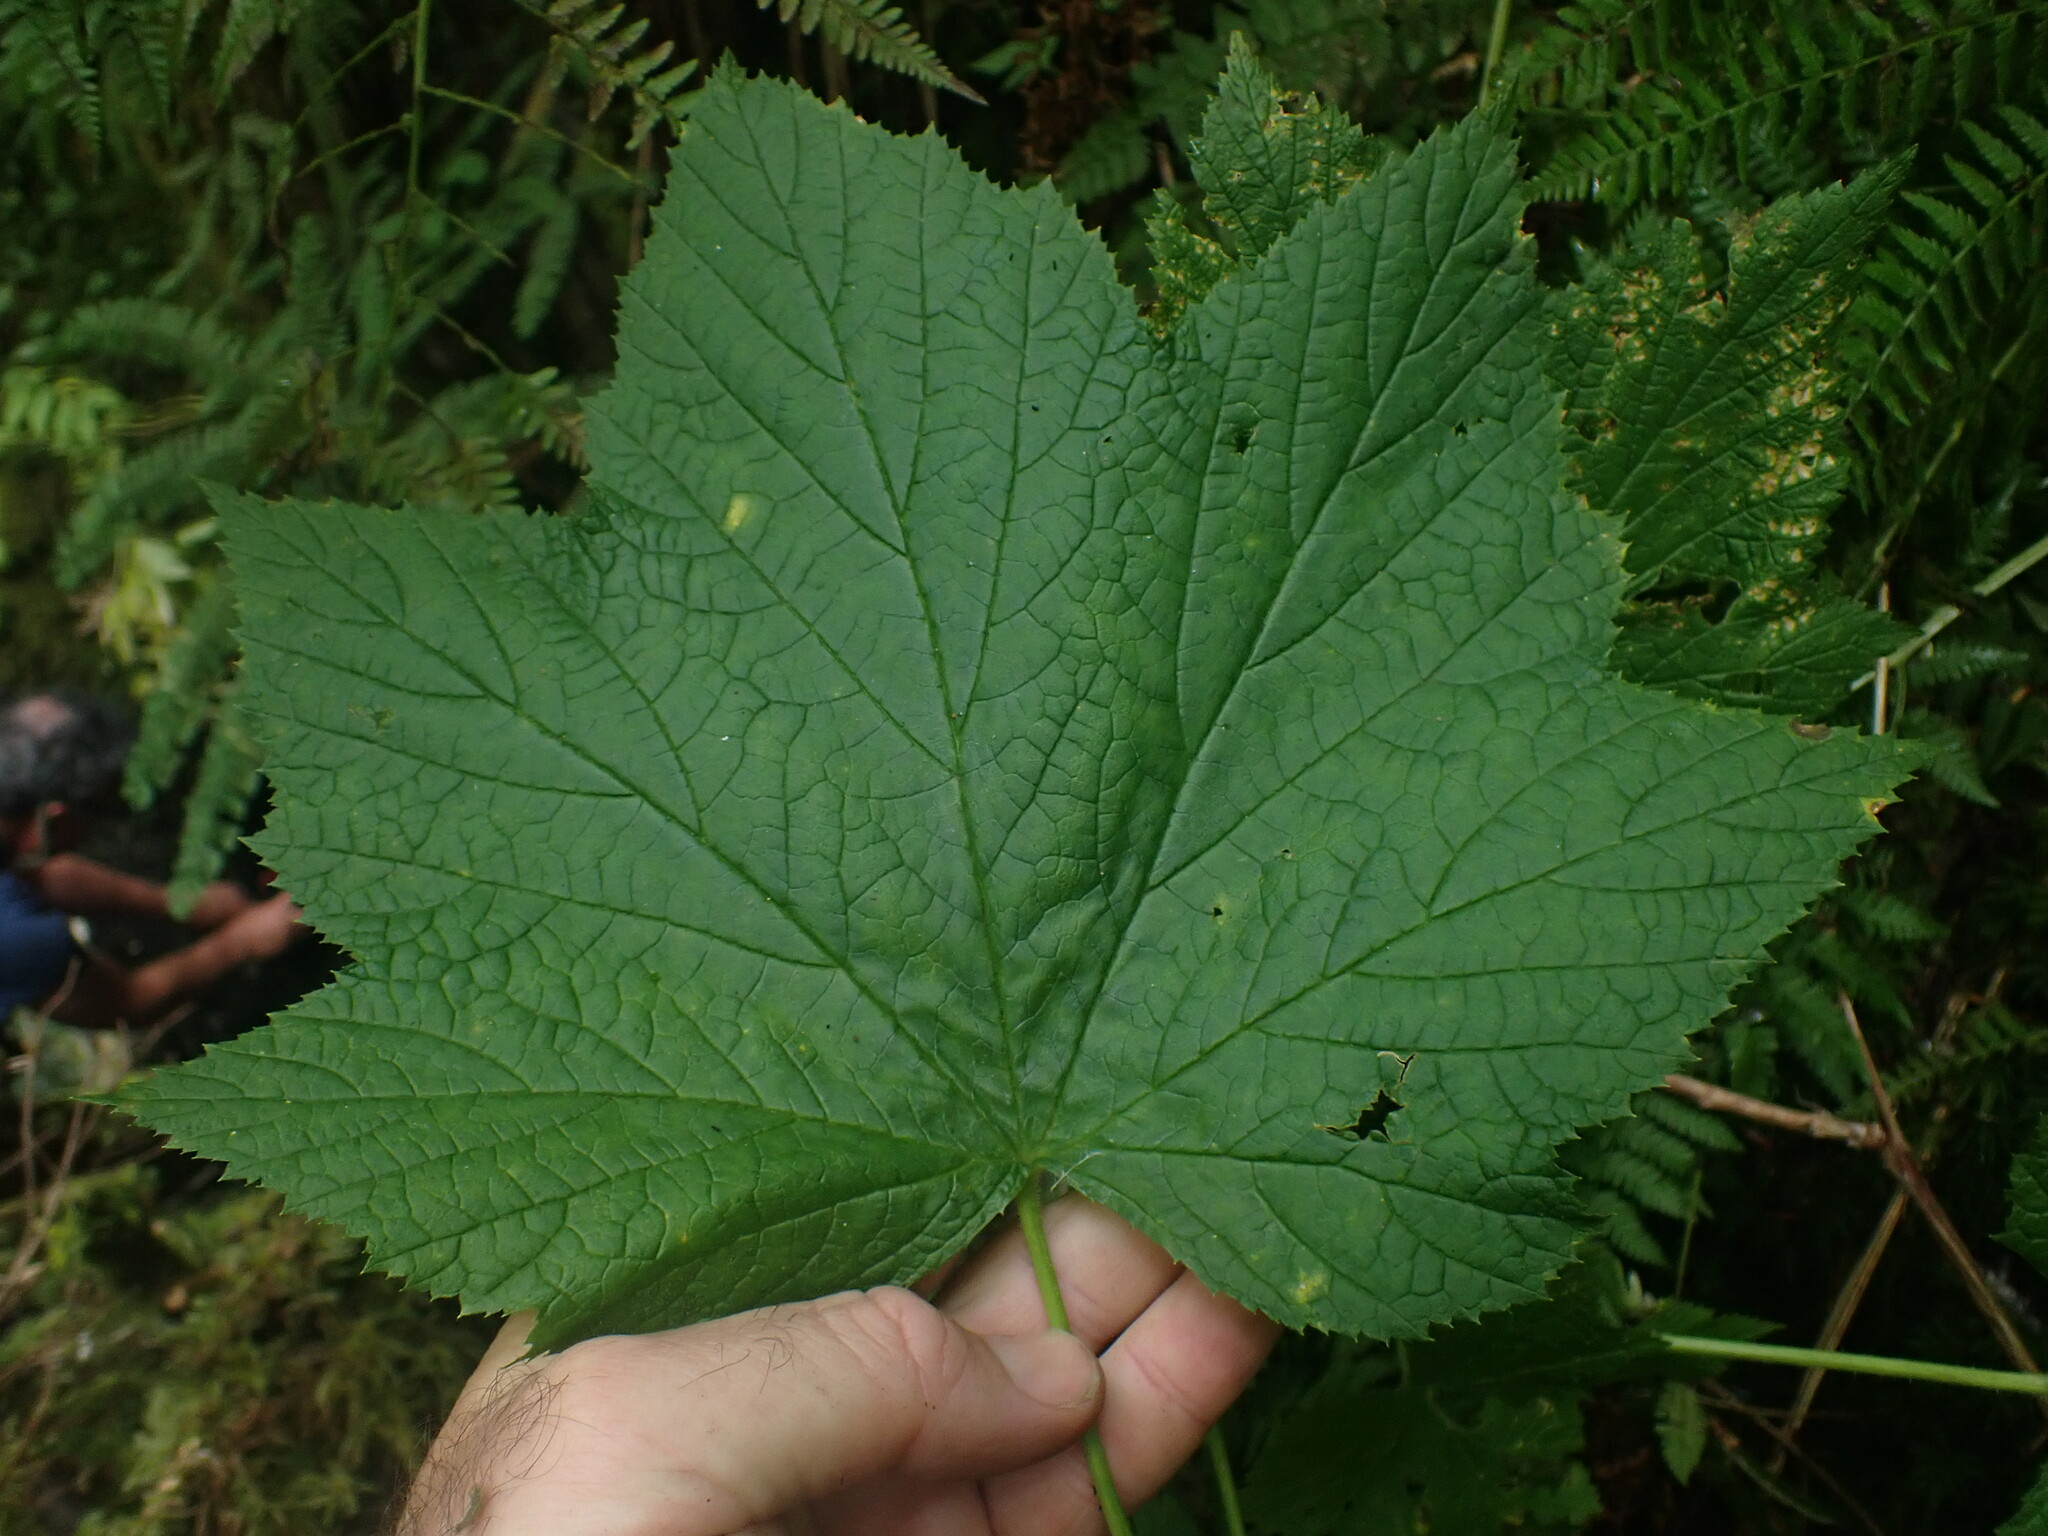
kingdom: Plantae
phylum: Tracheophyta
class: Magnoliopsida
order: Rosales
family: Rosaceae
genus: Rubus
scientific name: Rubus parviflorus
